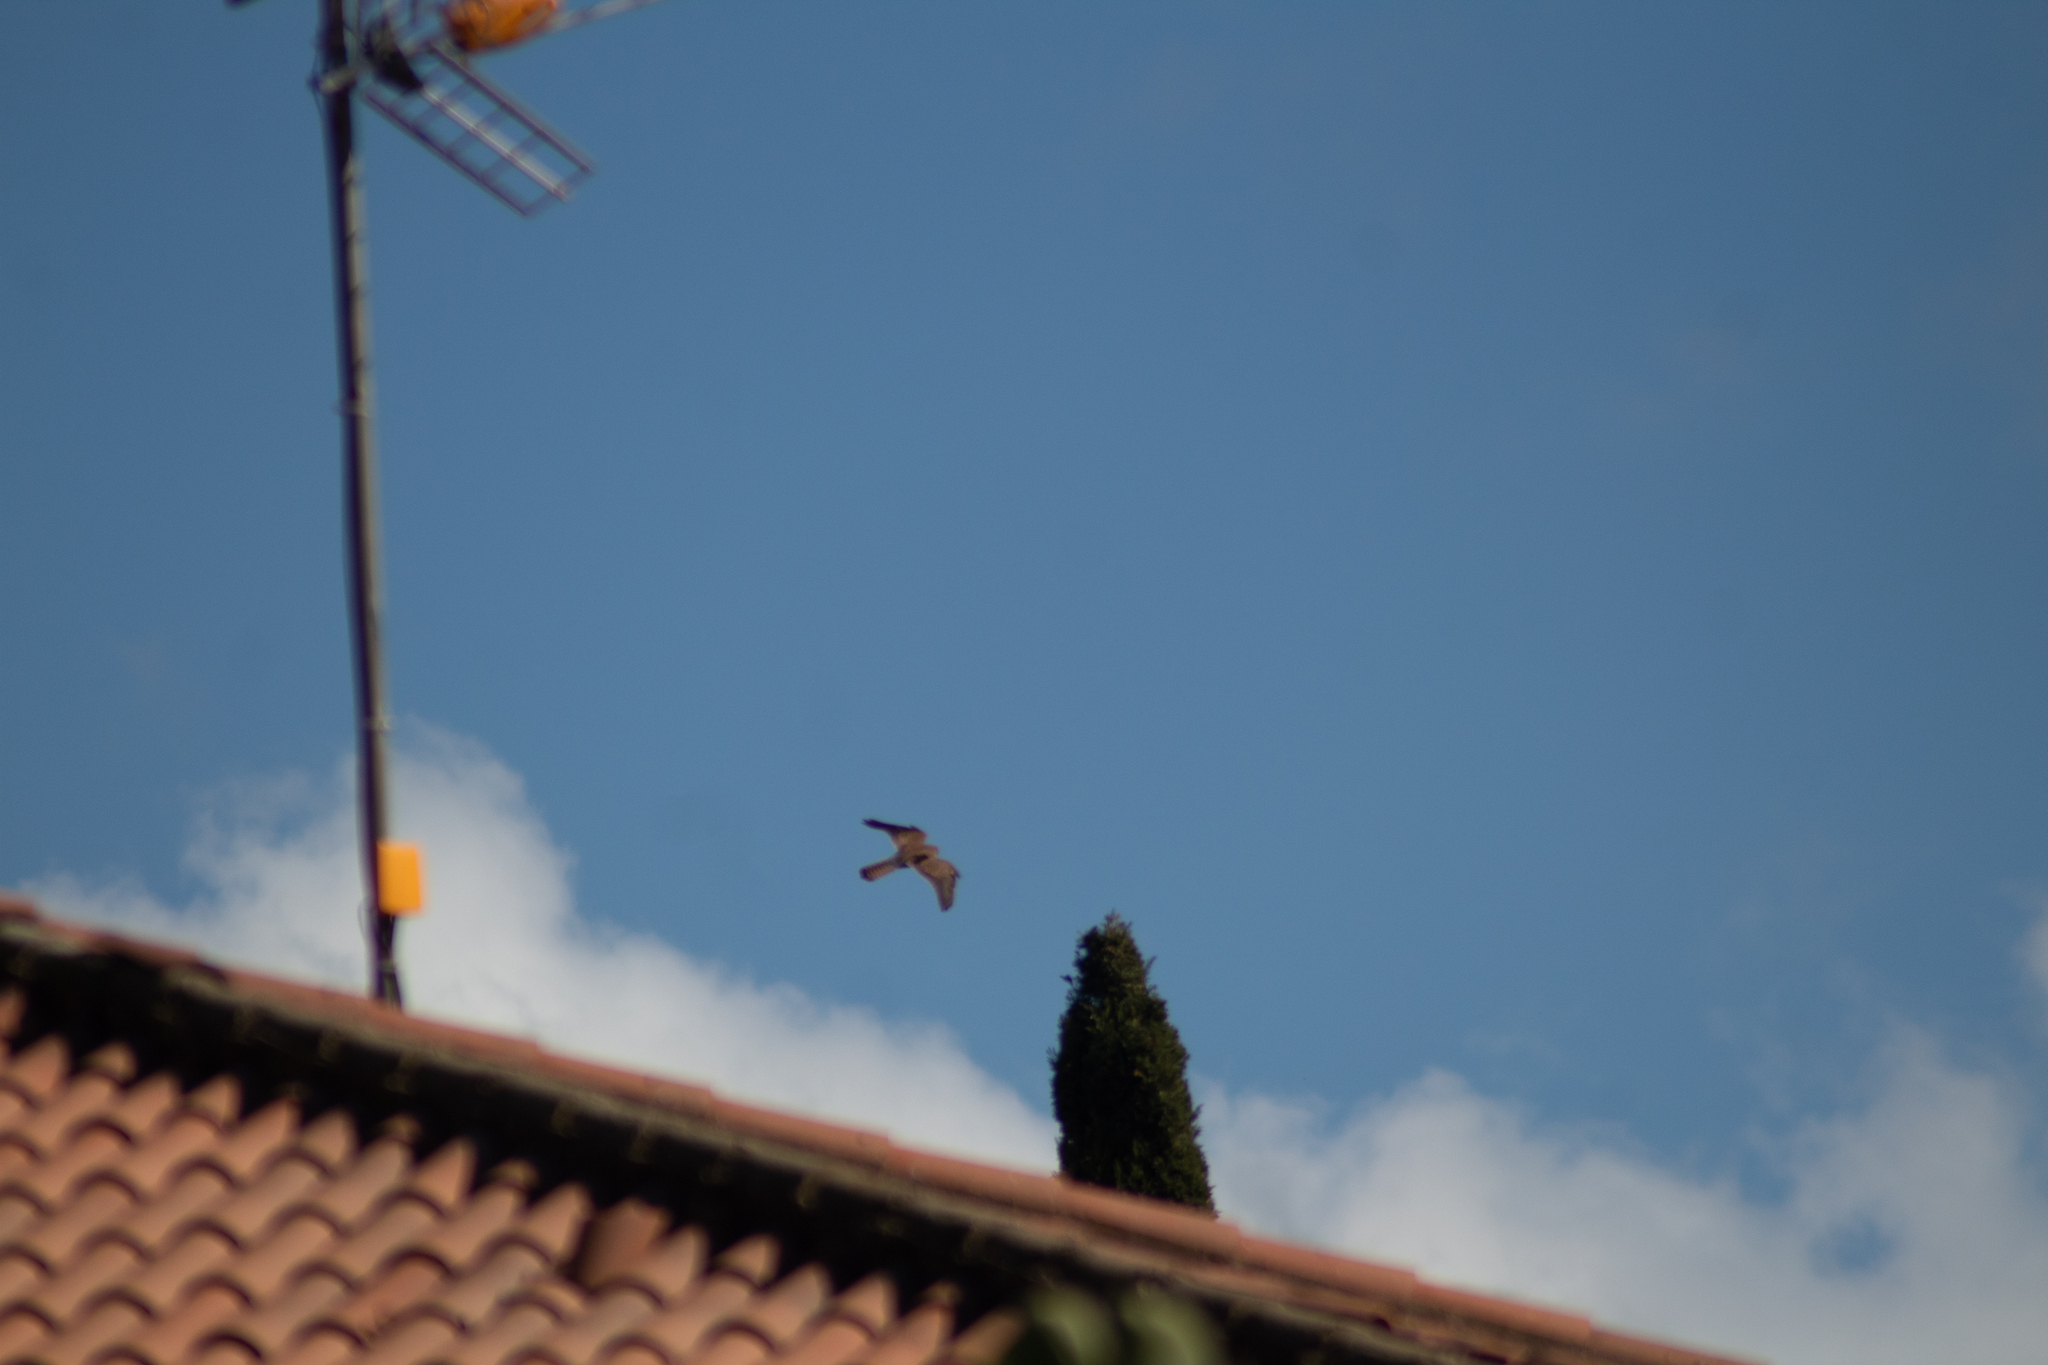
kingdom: Animalia
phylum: Chordata
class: Aves
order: Falconiformes
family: Falconidae
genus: Falco
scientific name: Falco tinnunculus
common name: Common kestrel
